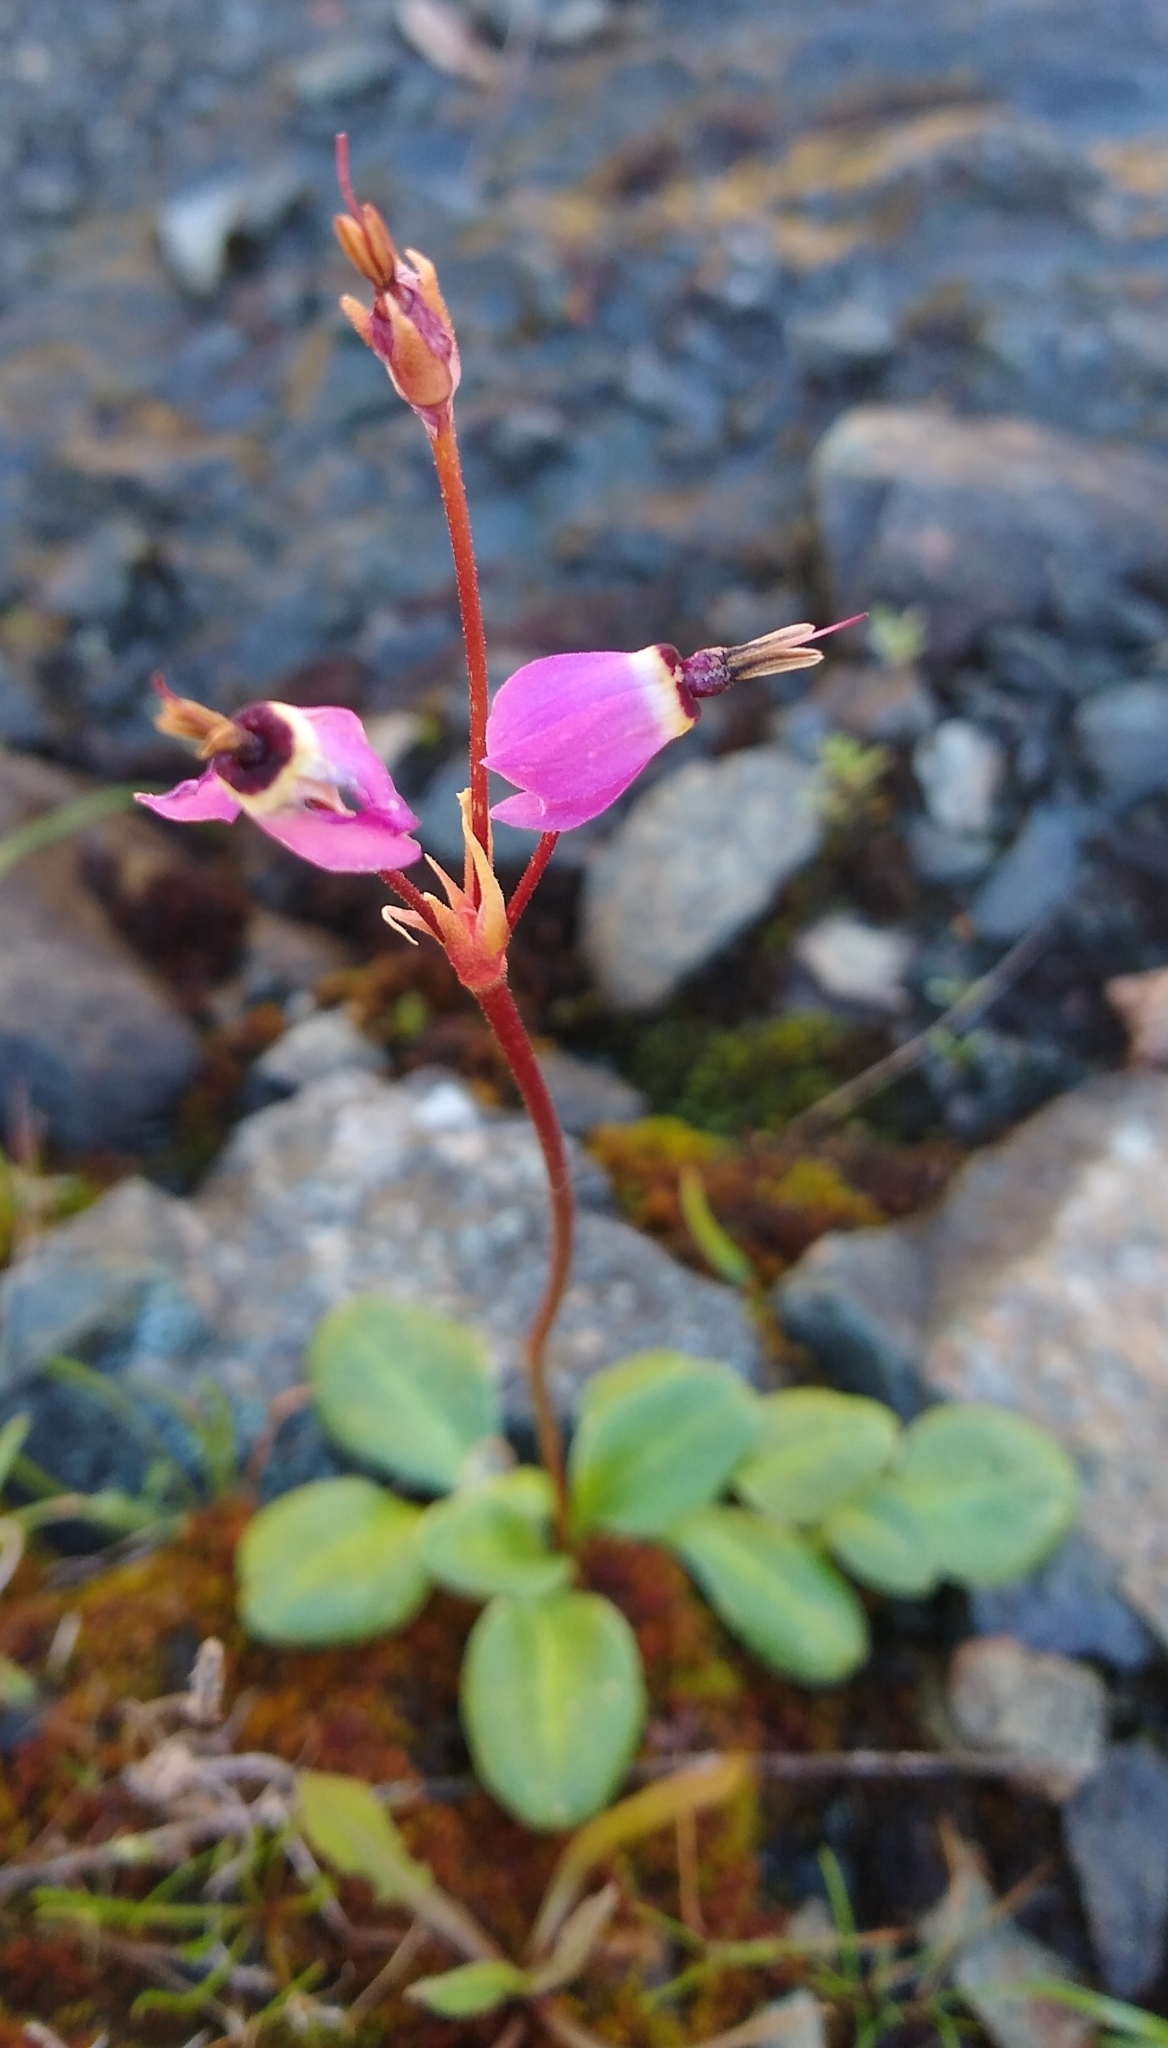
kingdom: Plantae
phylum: Tracheophyta
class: Magnoliopsida
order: Ericales
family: Primulaceae
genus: Dodecatheon
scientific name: Dodecatheon hendersonii
